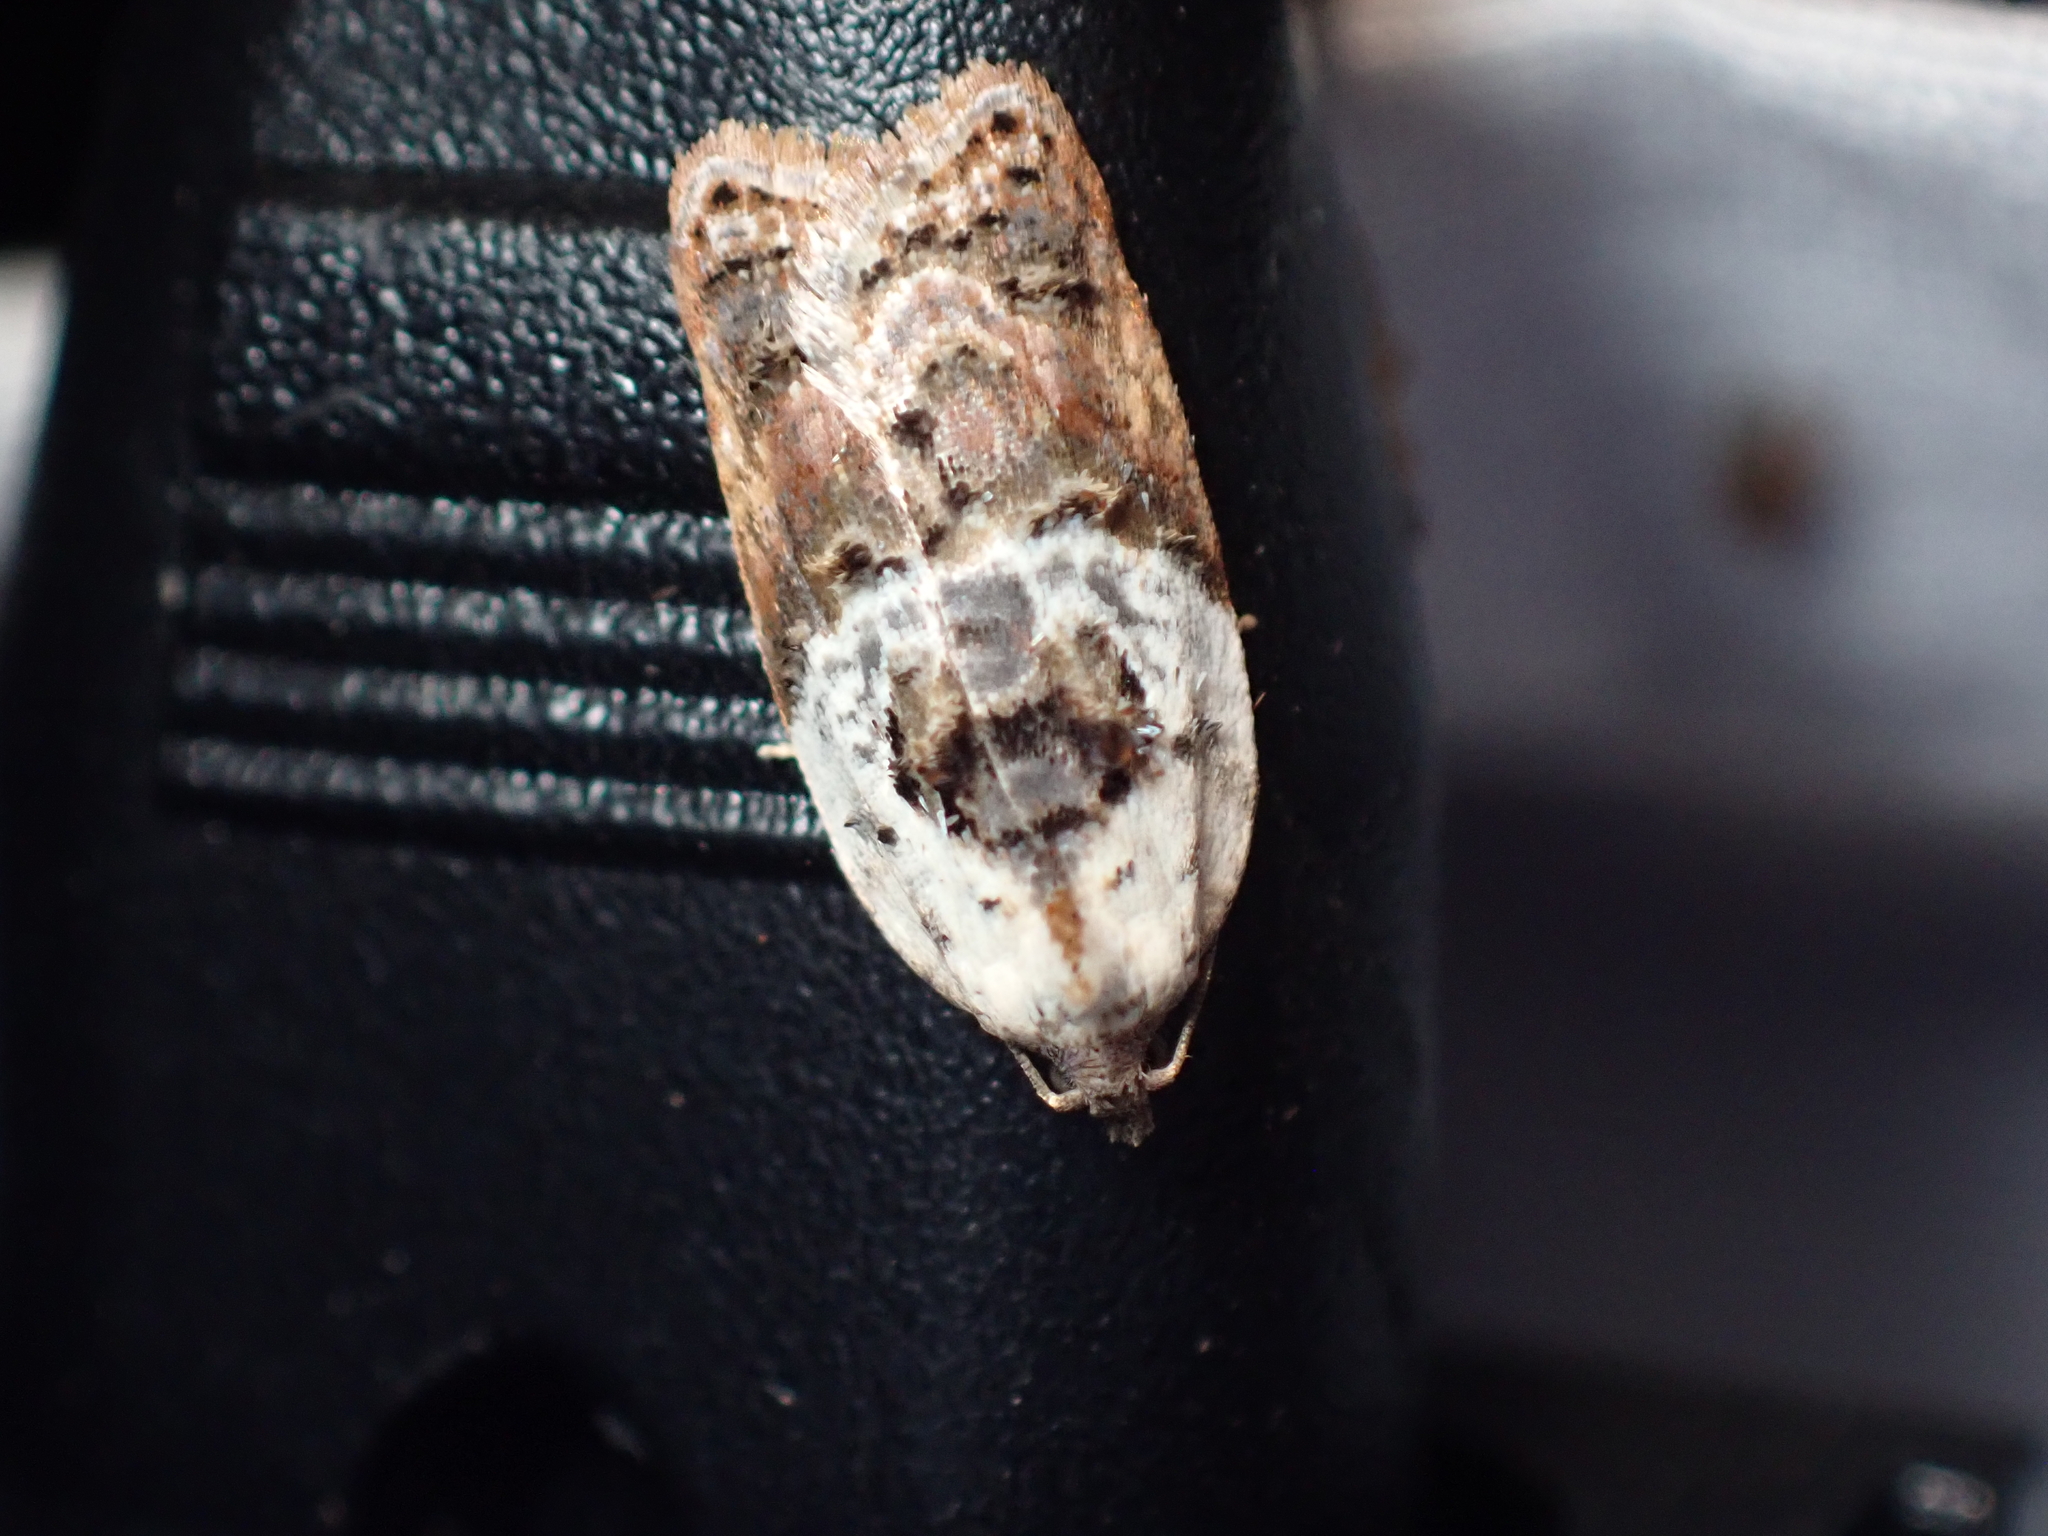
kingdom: Animalia
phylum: Arthropoda
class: Insecta
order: Lepidoptera
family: Tortricidae
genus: Acleris
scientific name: Acleris variegana
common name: Garden rose tortrix
